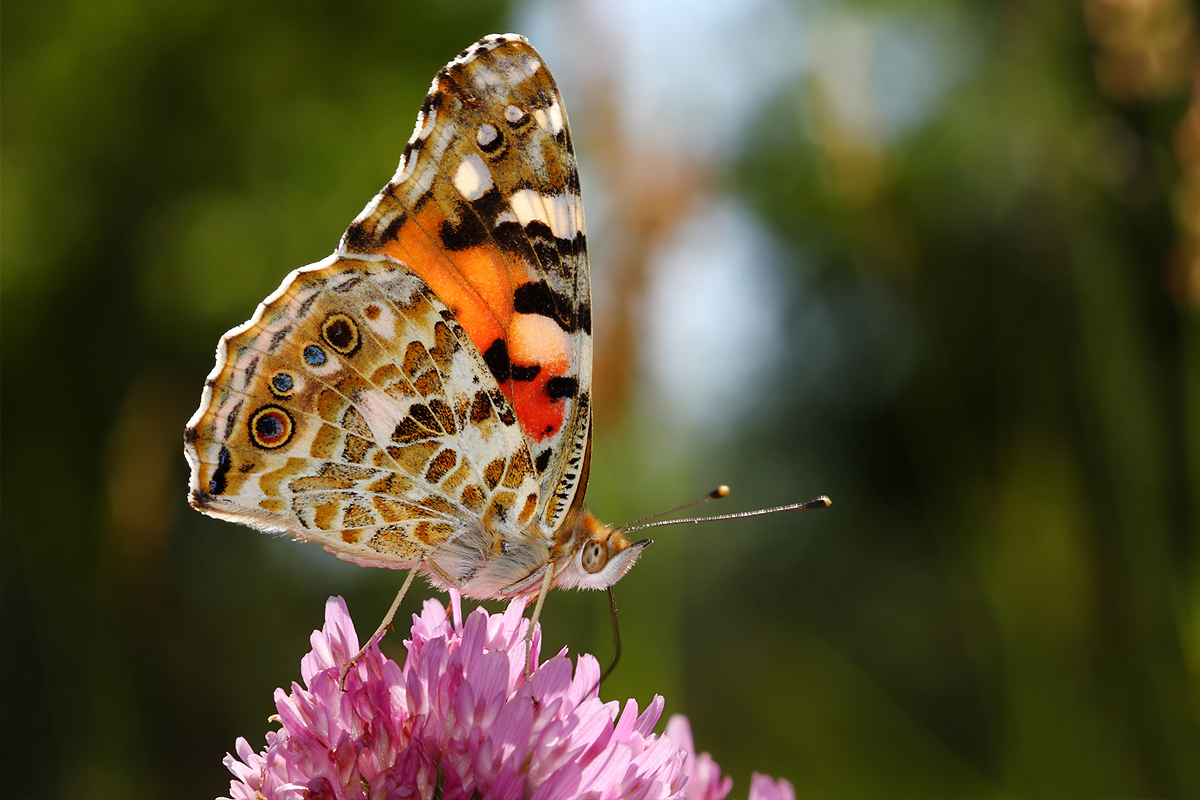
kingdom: Animalia
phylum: Arthropoda
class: Insecta
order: Lepidoptera
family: Nymphalidae
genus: Vanessa
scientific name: Vanessa cardui
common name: Painted lady
